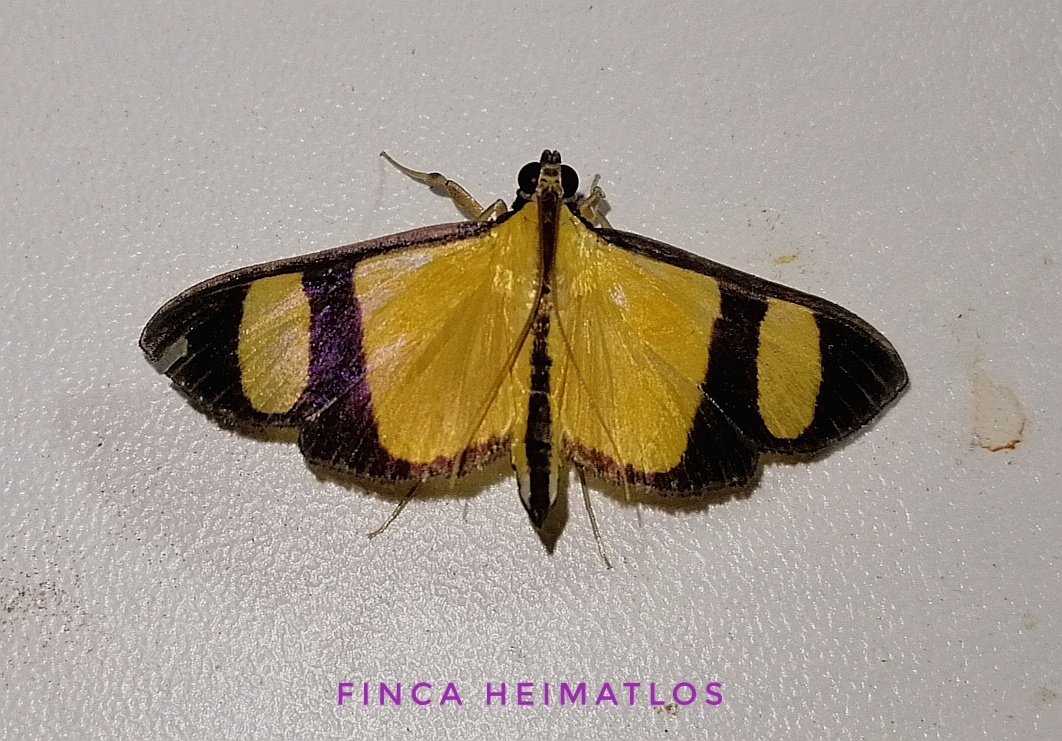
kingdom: Animalia
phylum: Arthropoda
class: Insecta
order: Lepidoptera
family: Crambidae
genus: Phostria
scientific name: Phostria delilalis
